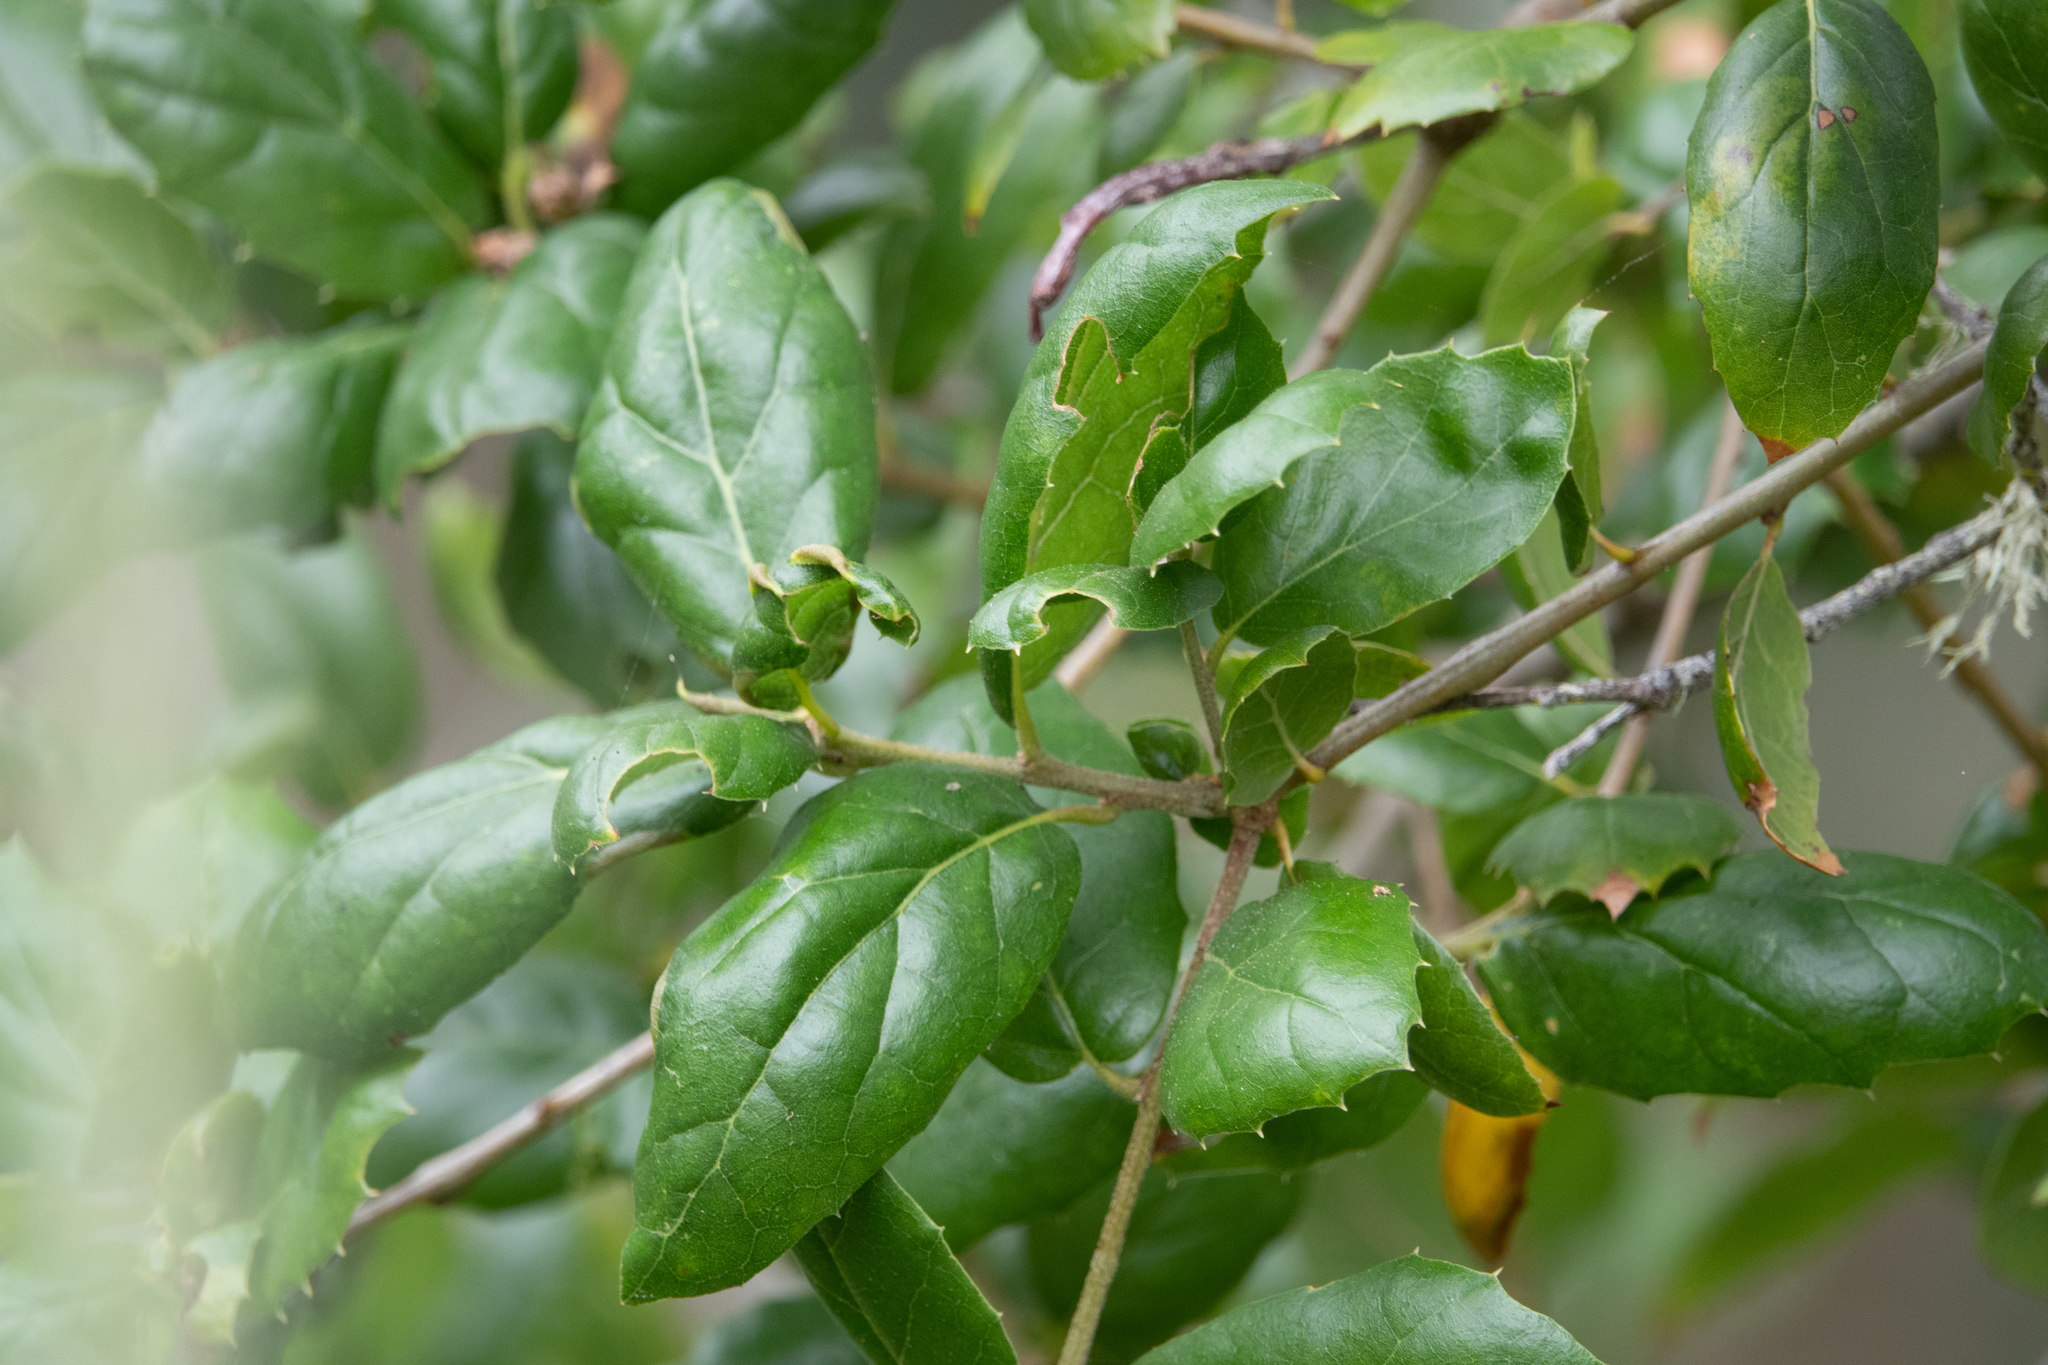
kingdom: Plantae
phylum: Tracheophyta
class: Magnoliopsida
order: Fagales
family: Fagaceae
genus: Quercus
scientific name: Quercus agrifolia
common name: California live oak
